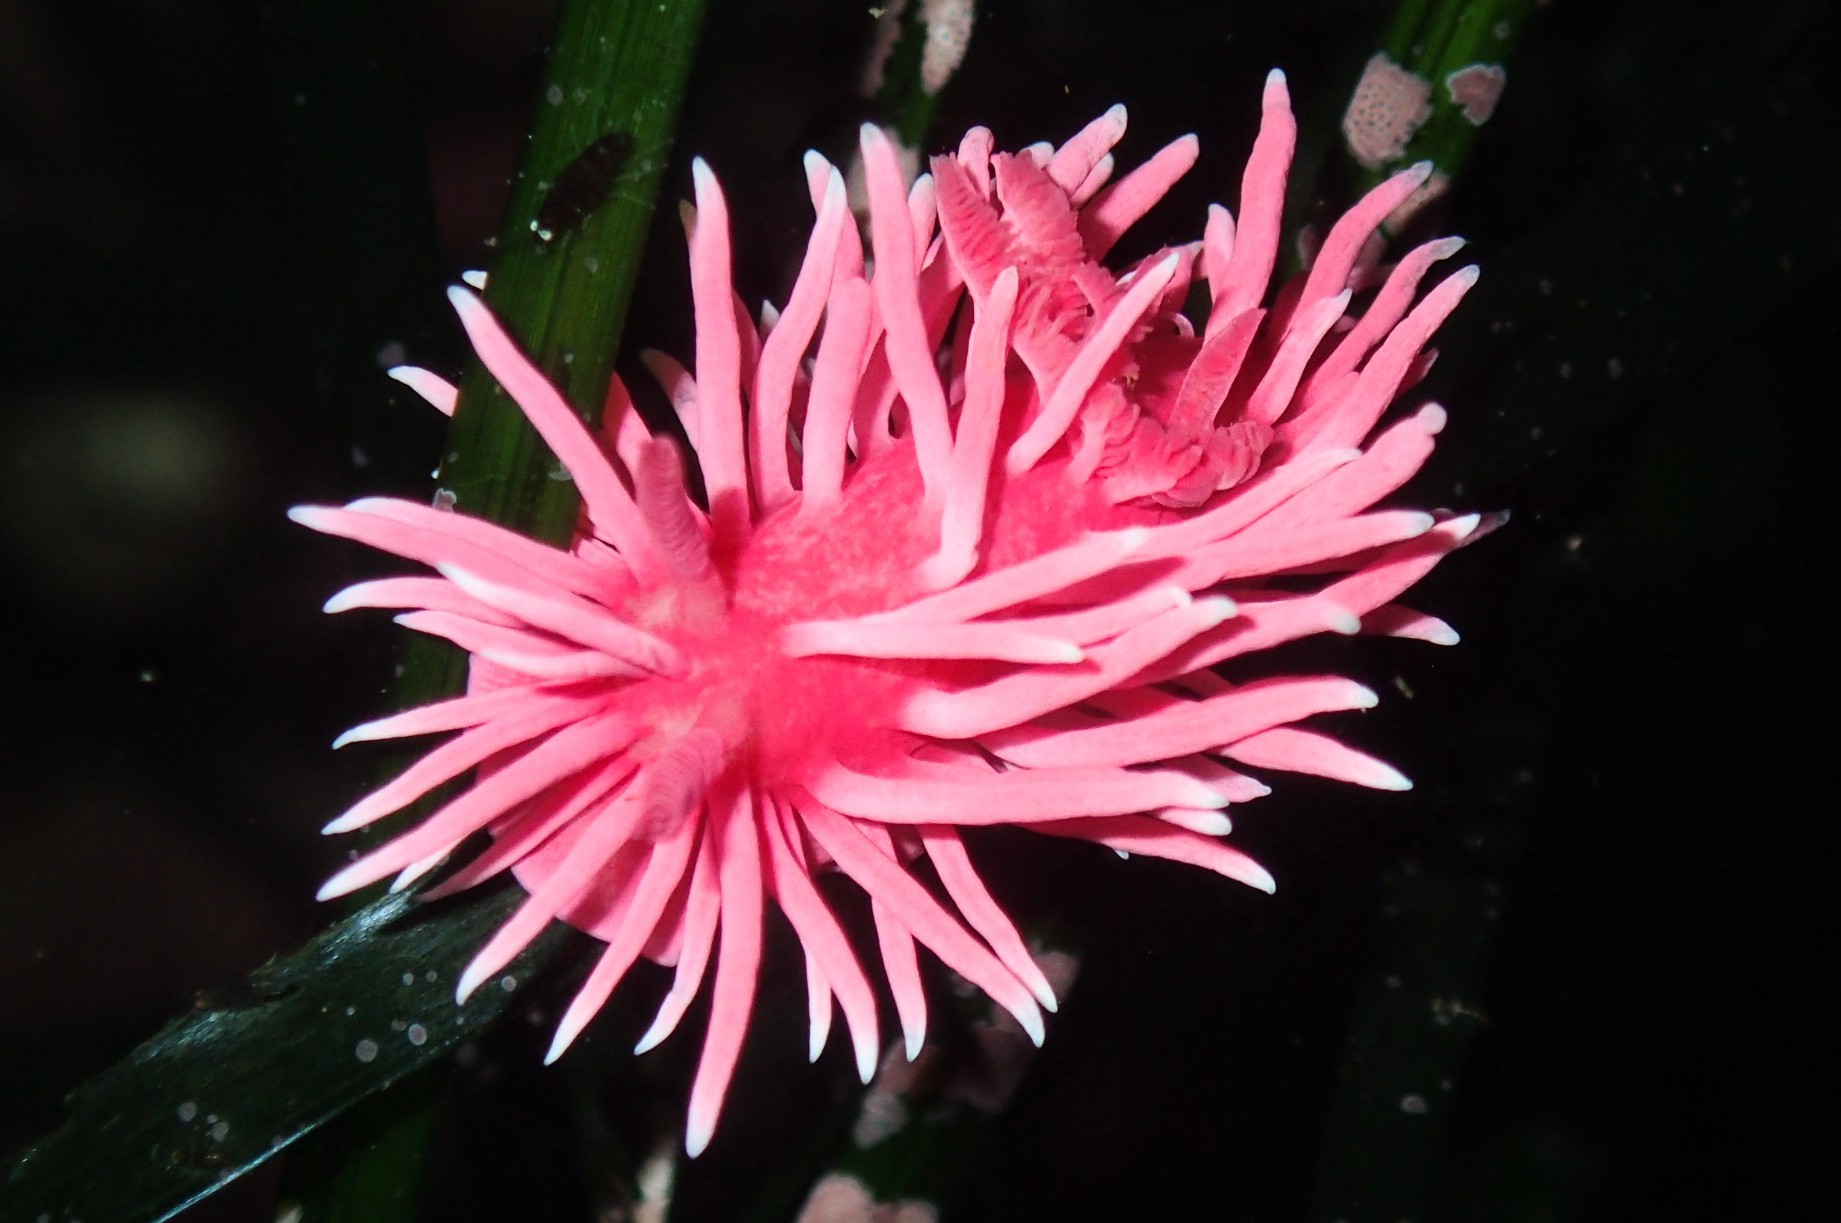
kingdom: Animalia
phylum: Mollusca
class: Gastropoda
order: Nudibranchia
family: Goniodorididae
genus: Okenia
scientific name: Okenia
